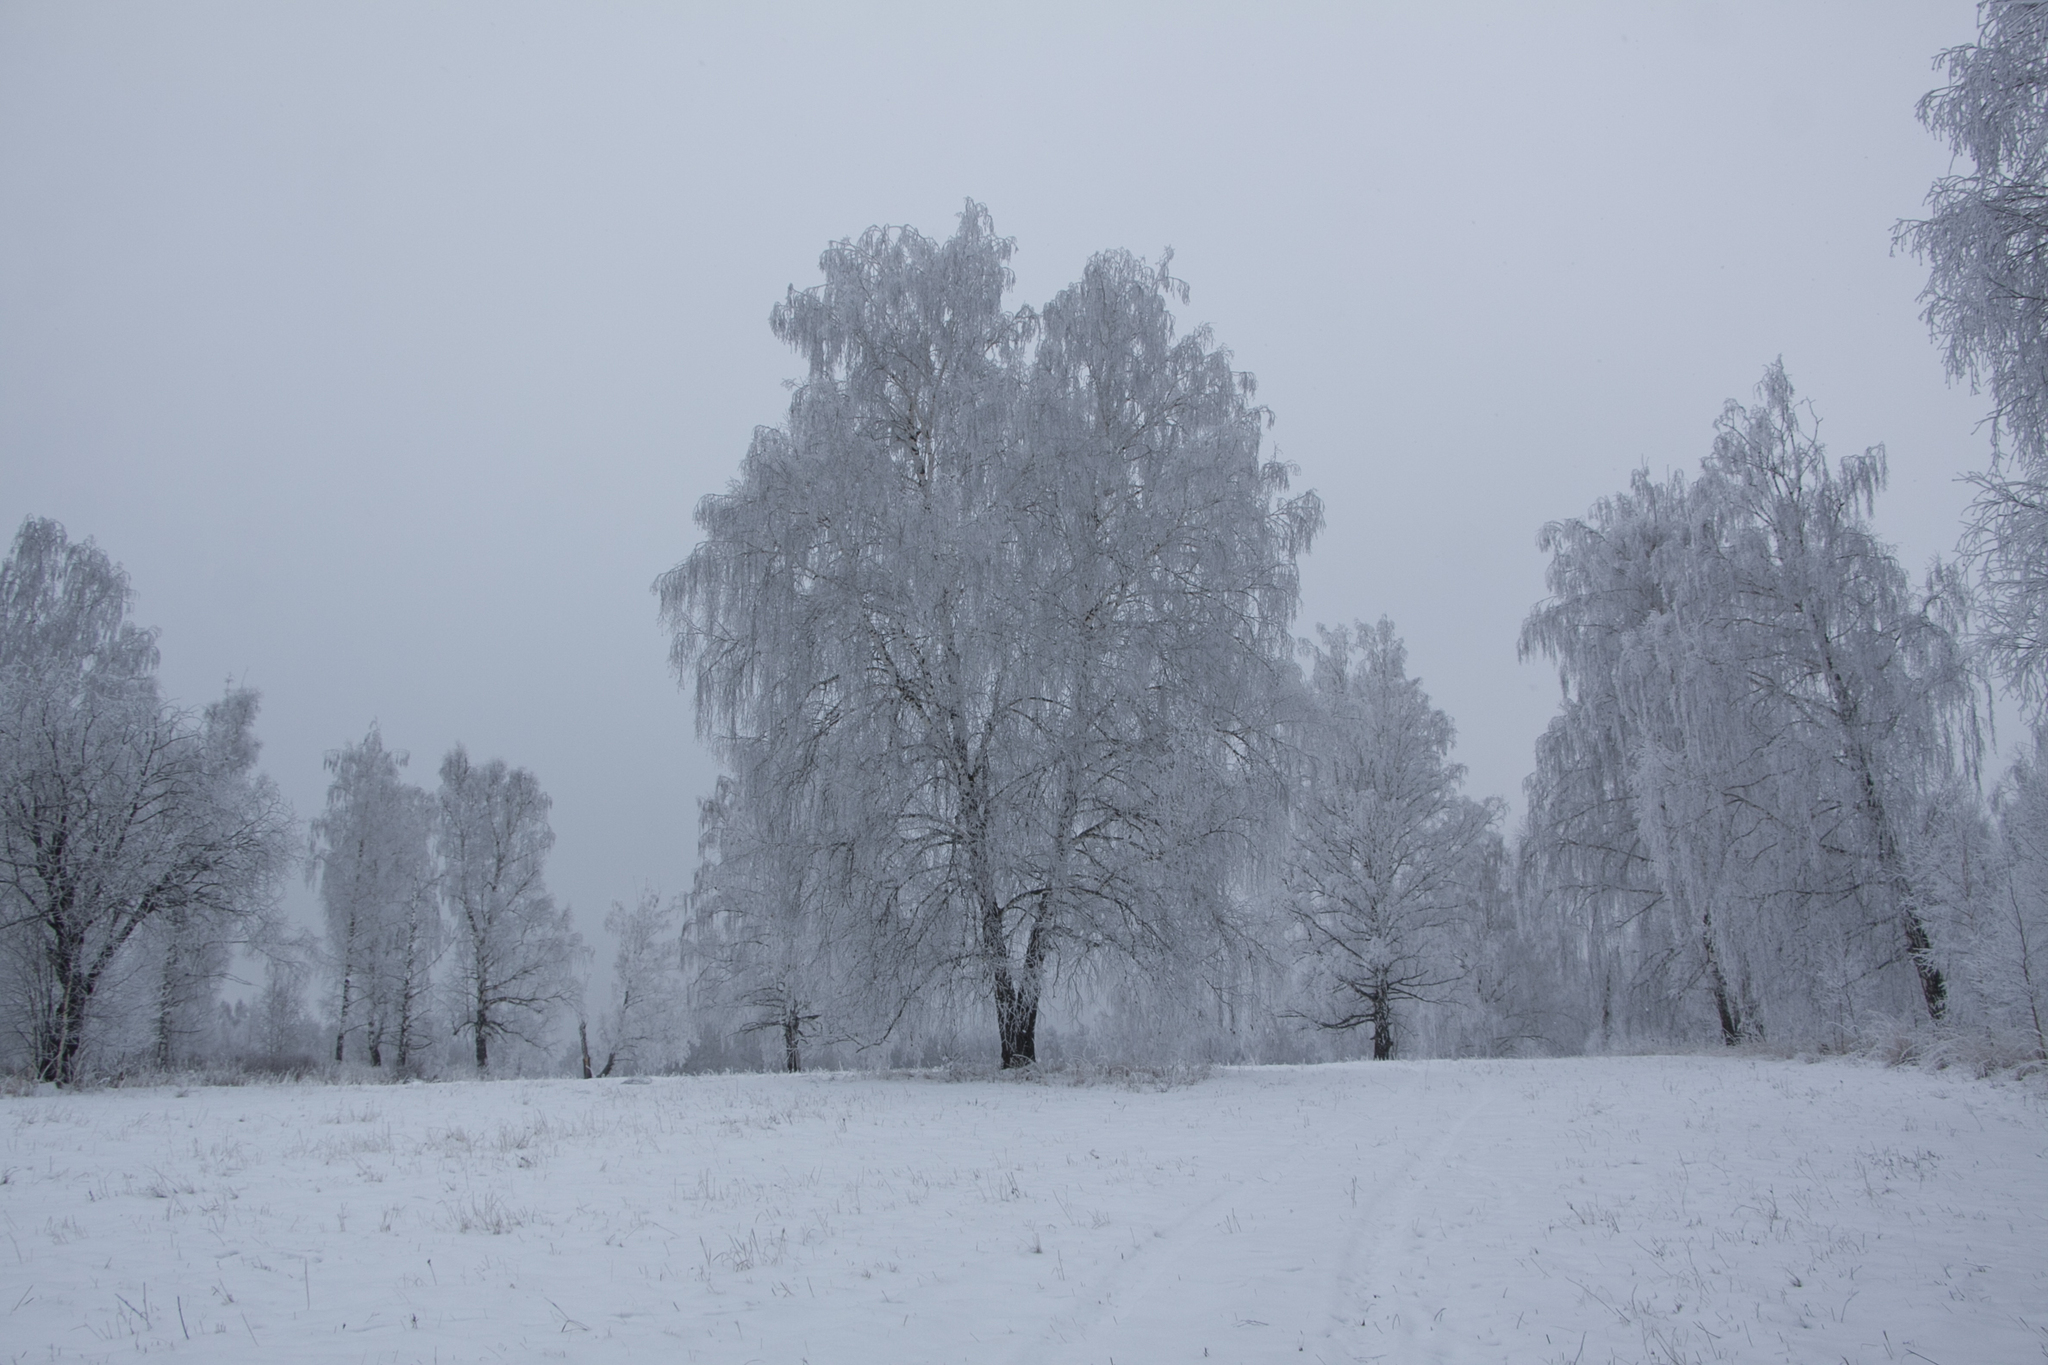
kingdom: Plantae
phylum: Tracheophyta
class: Magnoliopsida
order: Fagales
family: Betulaceae
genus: Betula
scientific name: Betula pendula
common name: Silver birch
